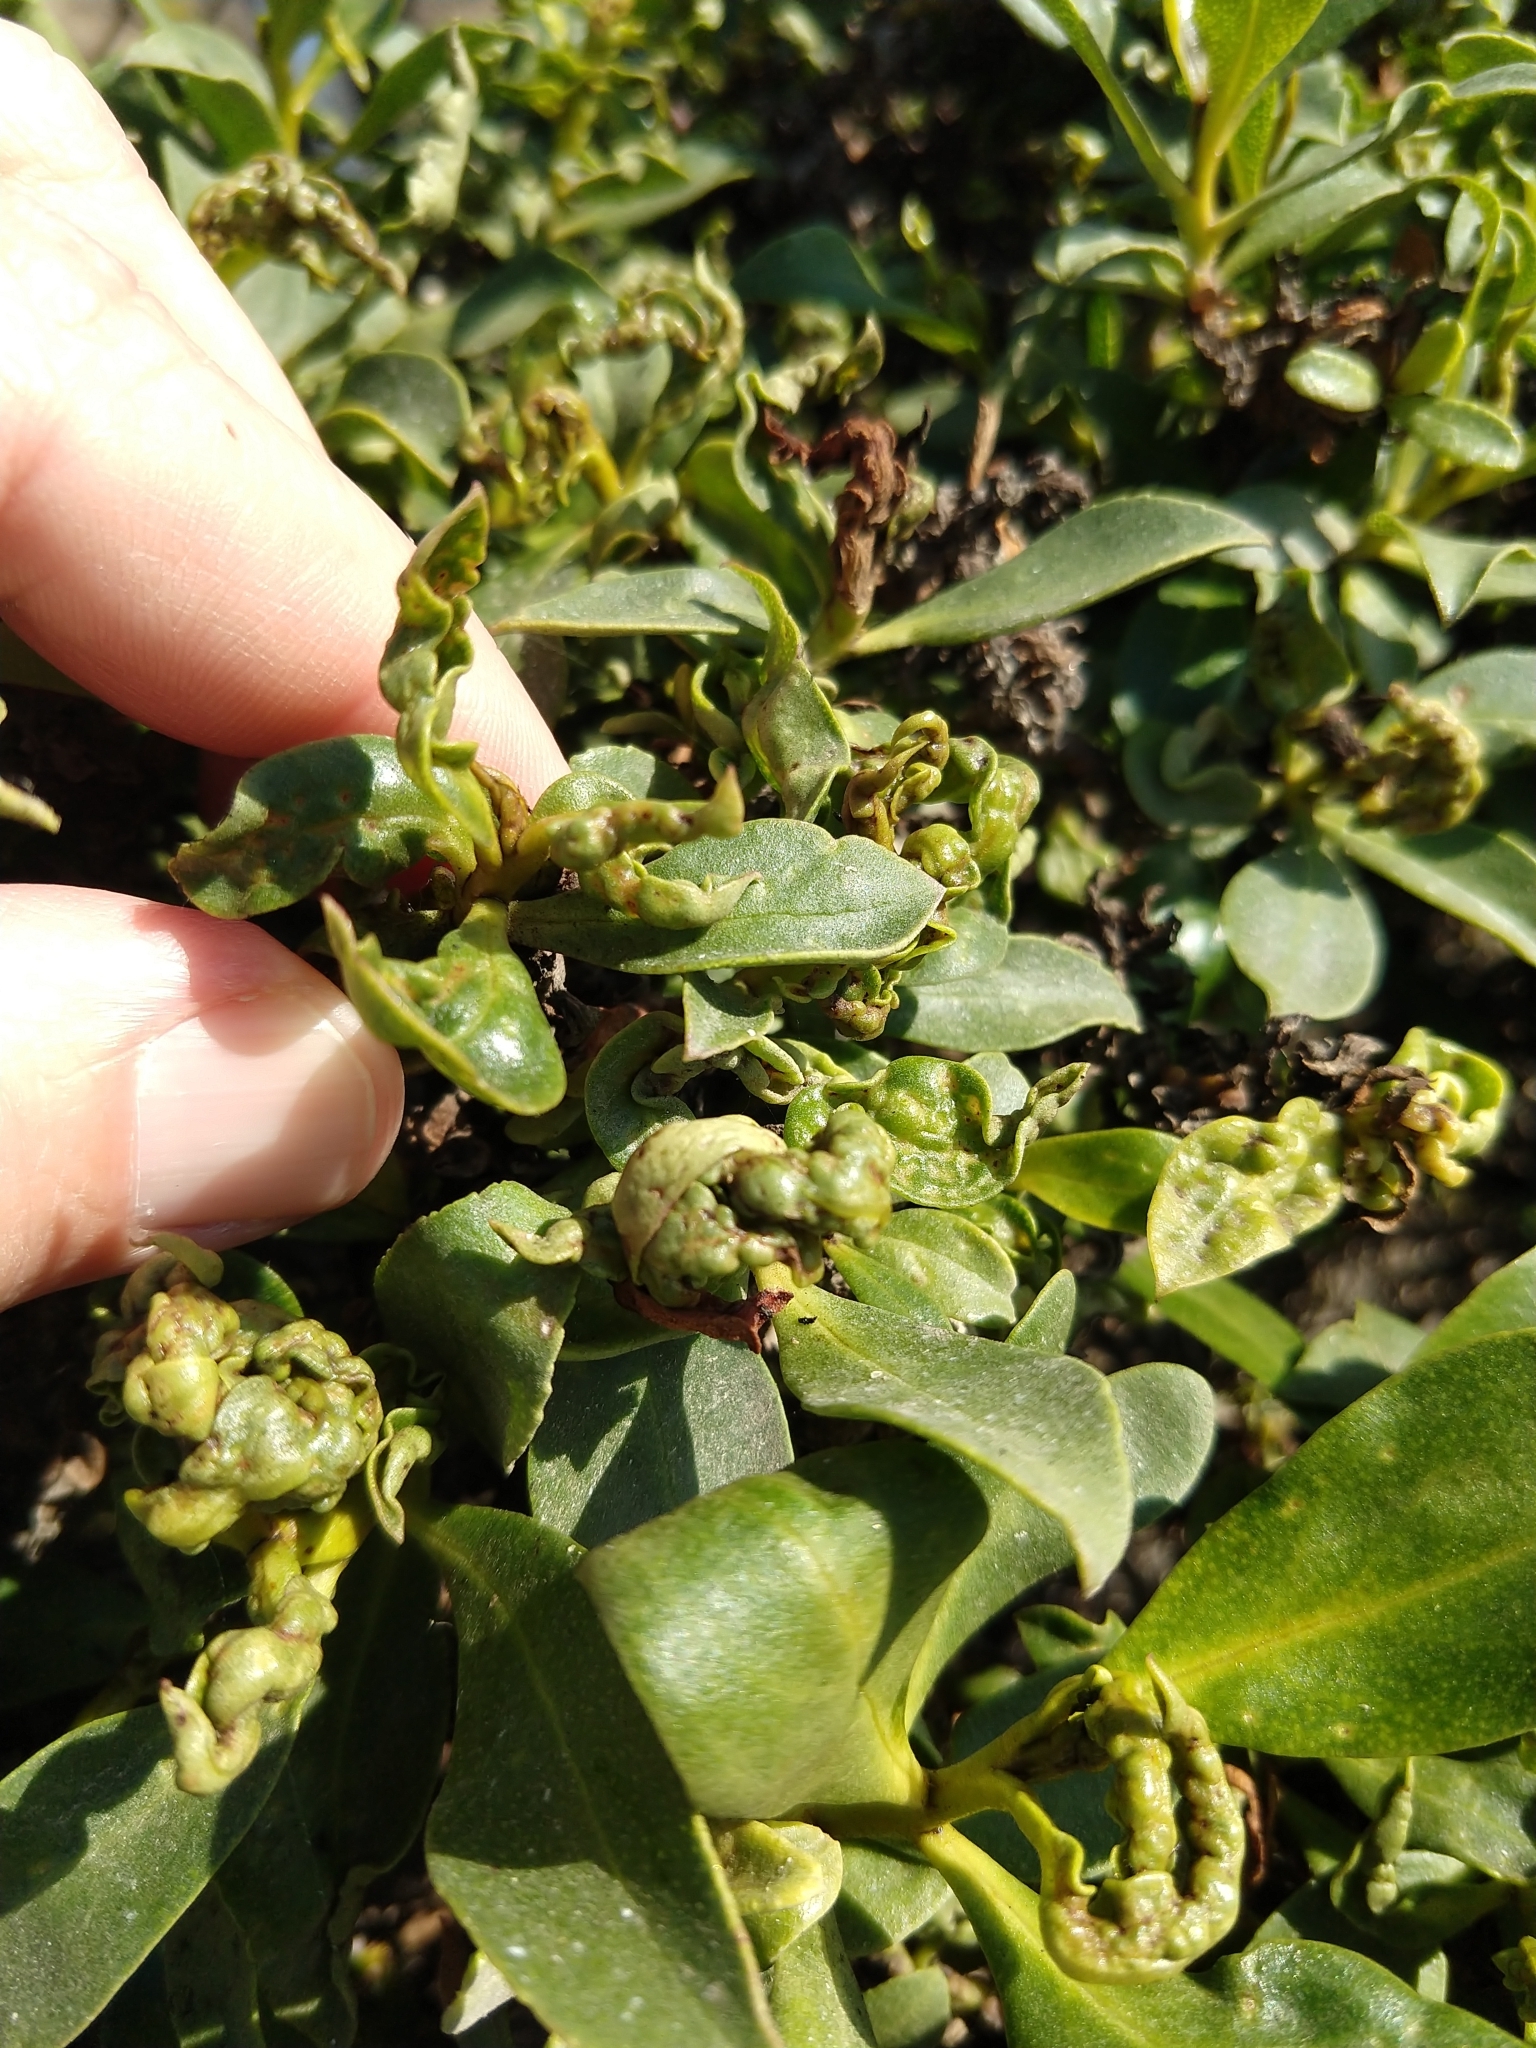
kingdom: Animalia
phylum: Arthropoda
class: Insecta
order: Thysanoptera
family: Phlaeothripidae
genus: Klambothrips
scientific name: Klambothrips myopori
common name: Myoporum thrips
